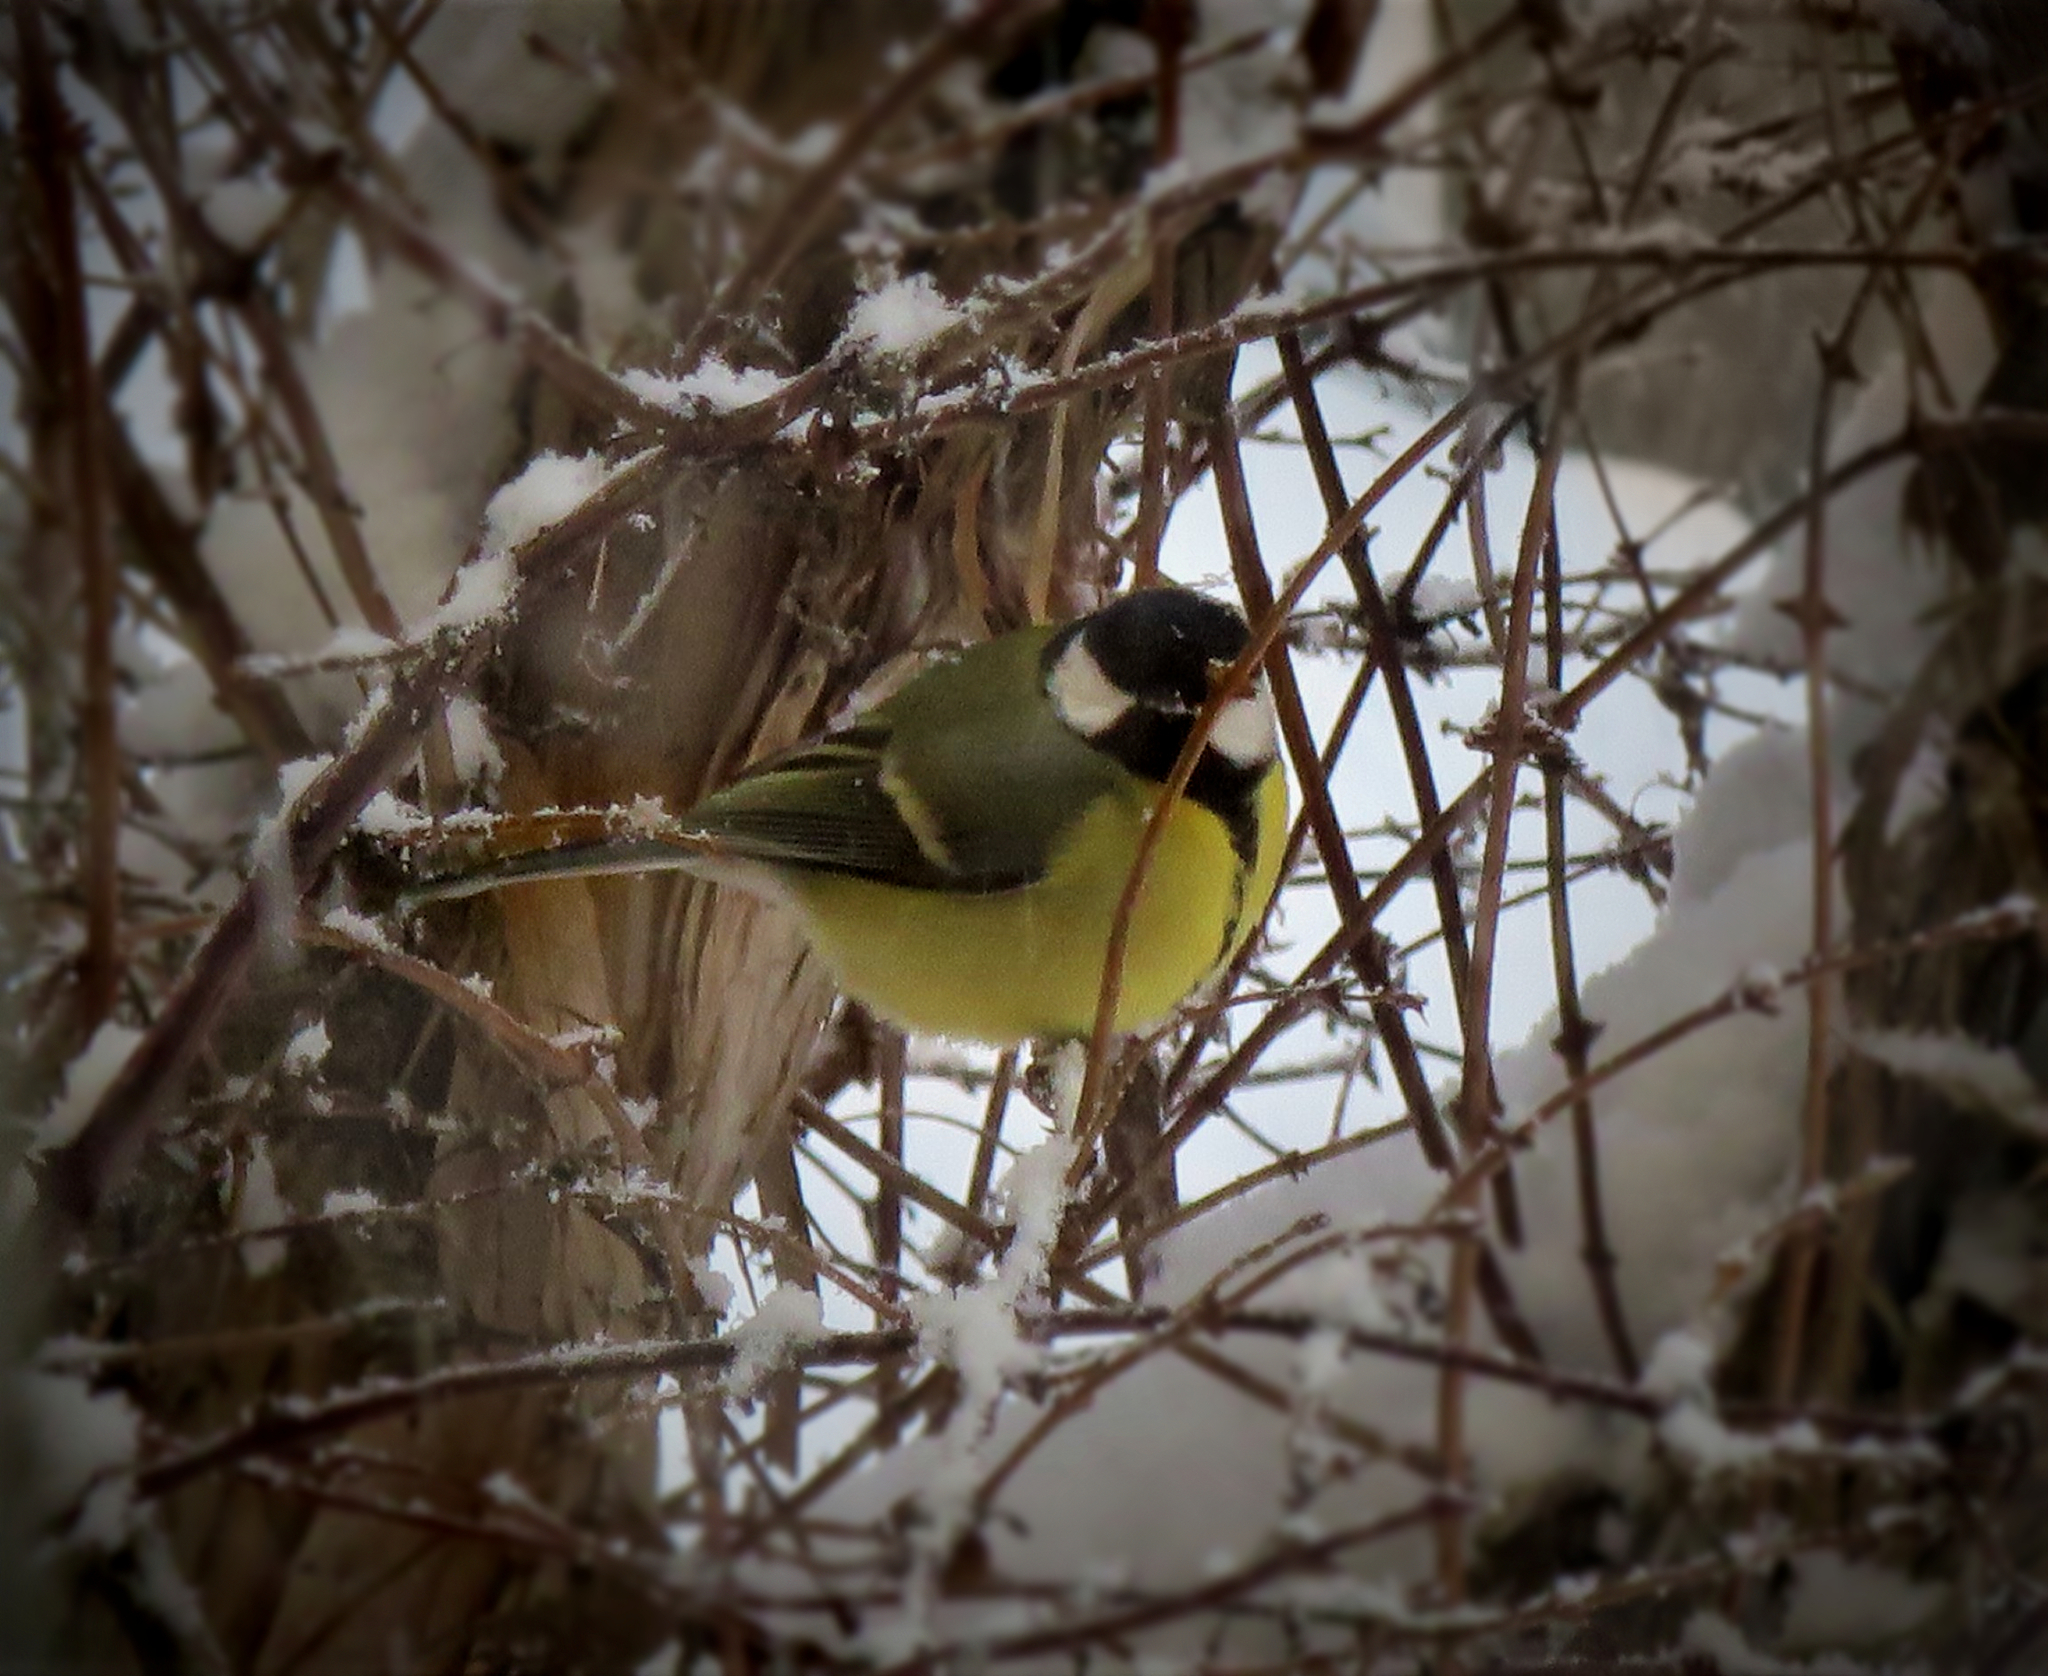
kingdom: Animalia
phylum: Chordata
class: Aves
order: Passeriformes
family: Paridae
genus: Parus
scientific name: Parus major
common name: Great tit
